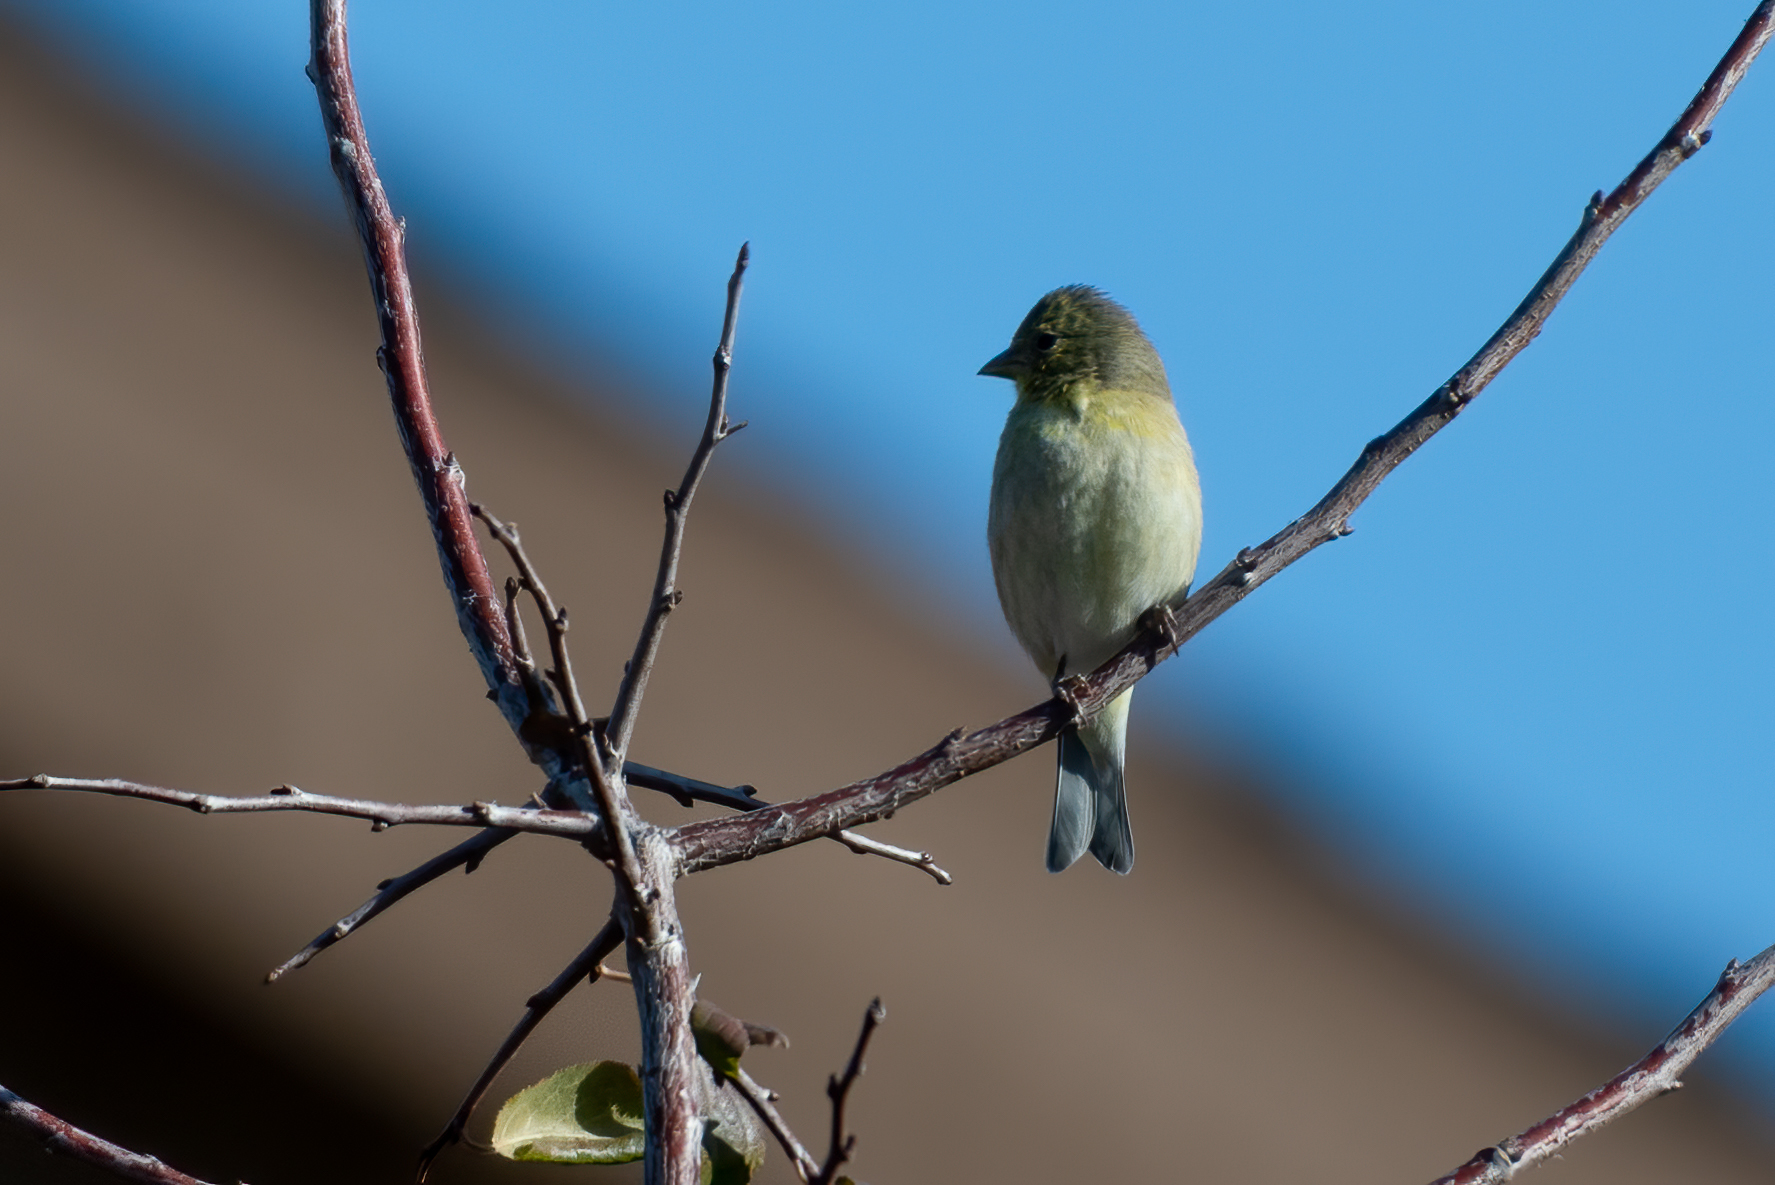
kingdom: Animalia
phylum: Chordata
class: Aves
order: Passeriformes
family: Fringillidae
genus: Spinus
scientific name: Spinus psaltria
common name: Lesser goldfinch
